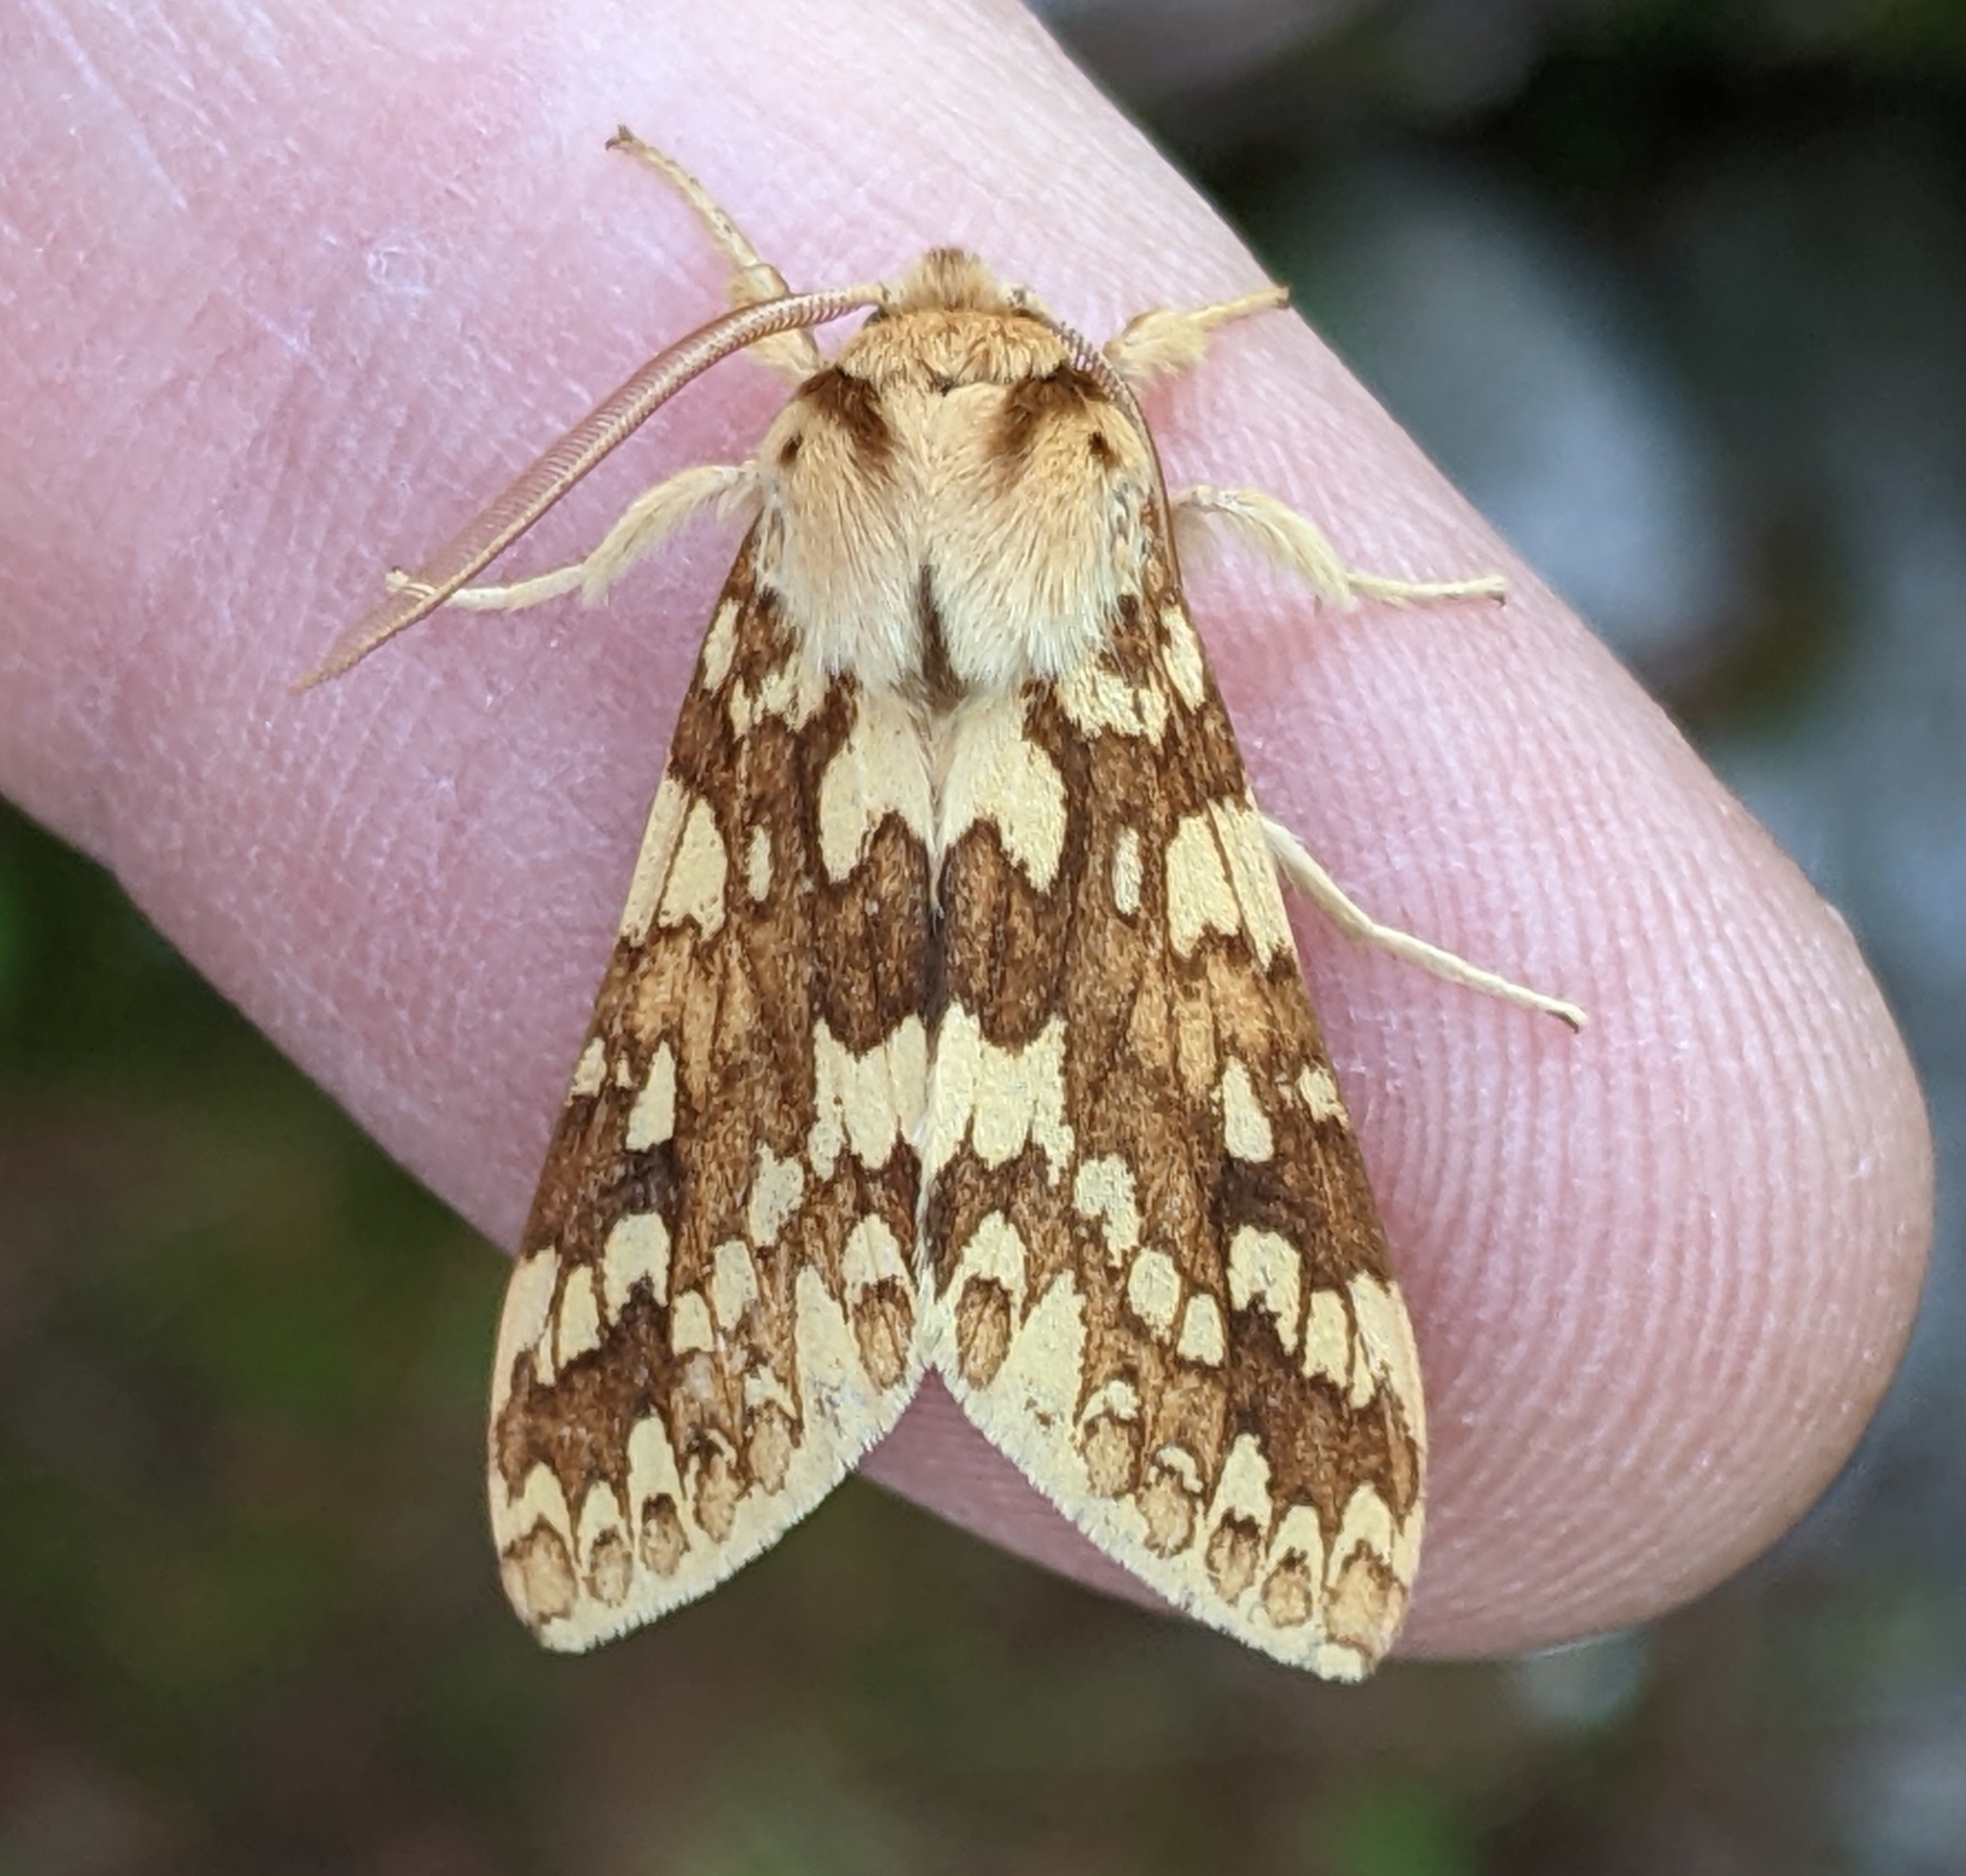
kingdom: Animalia
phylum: Arthropoda
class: Insecta
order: Lepidoptera
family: Erebidae
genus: Lophocampa
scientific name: Lophocampa maculata
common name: Spotted tussock moth
